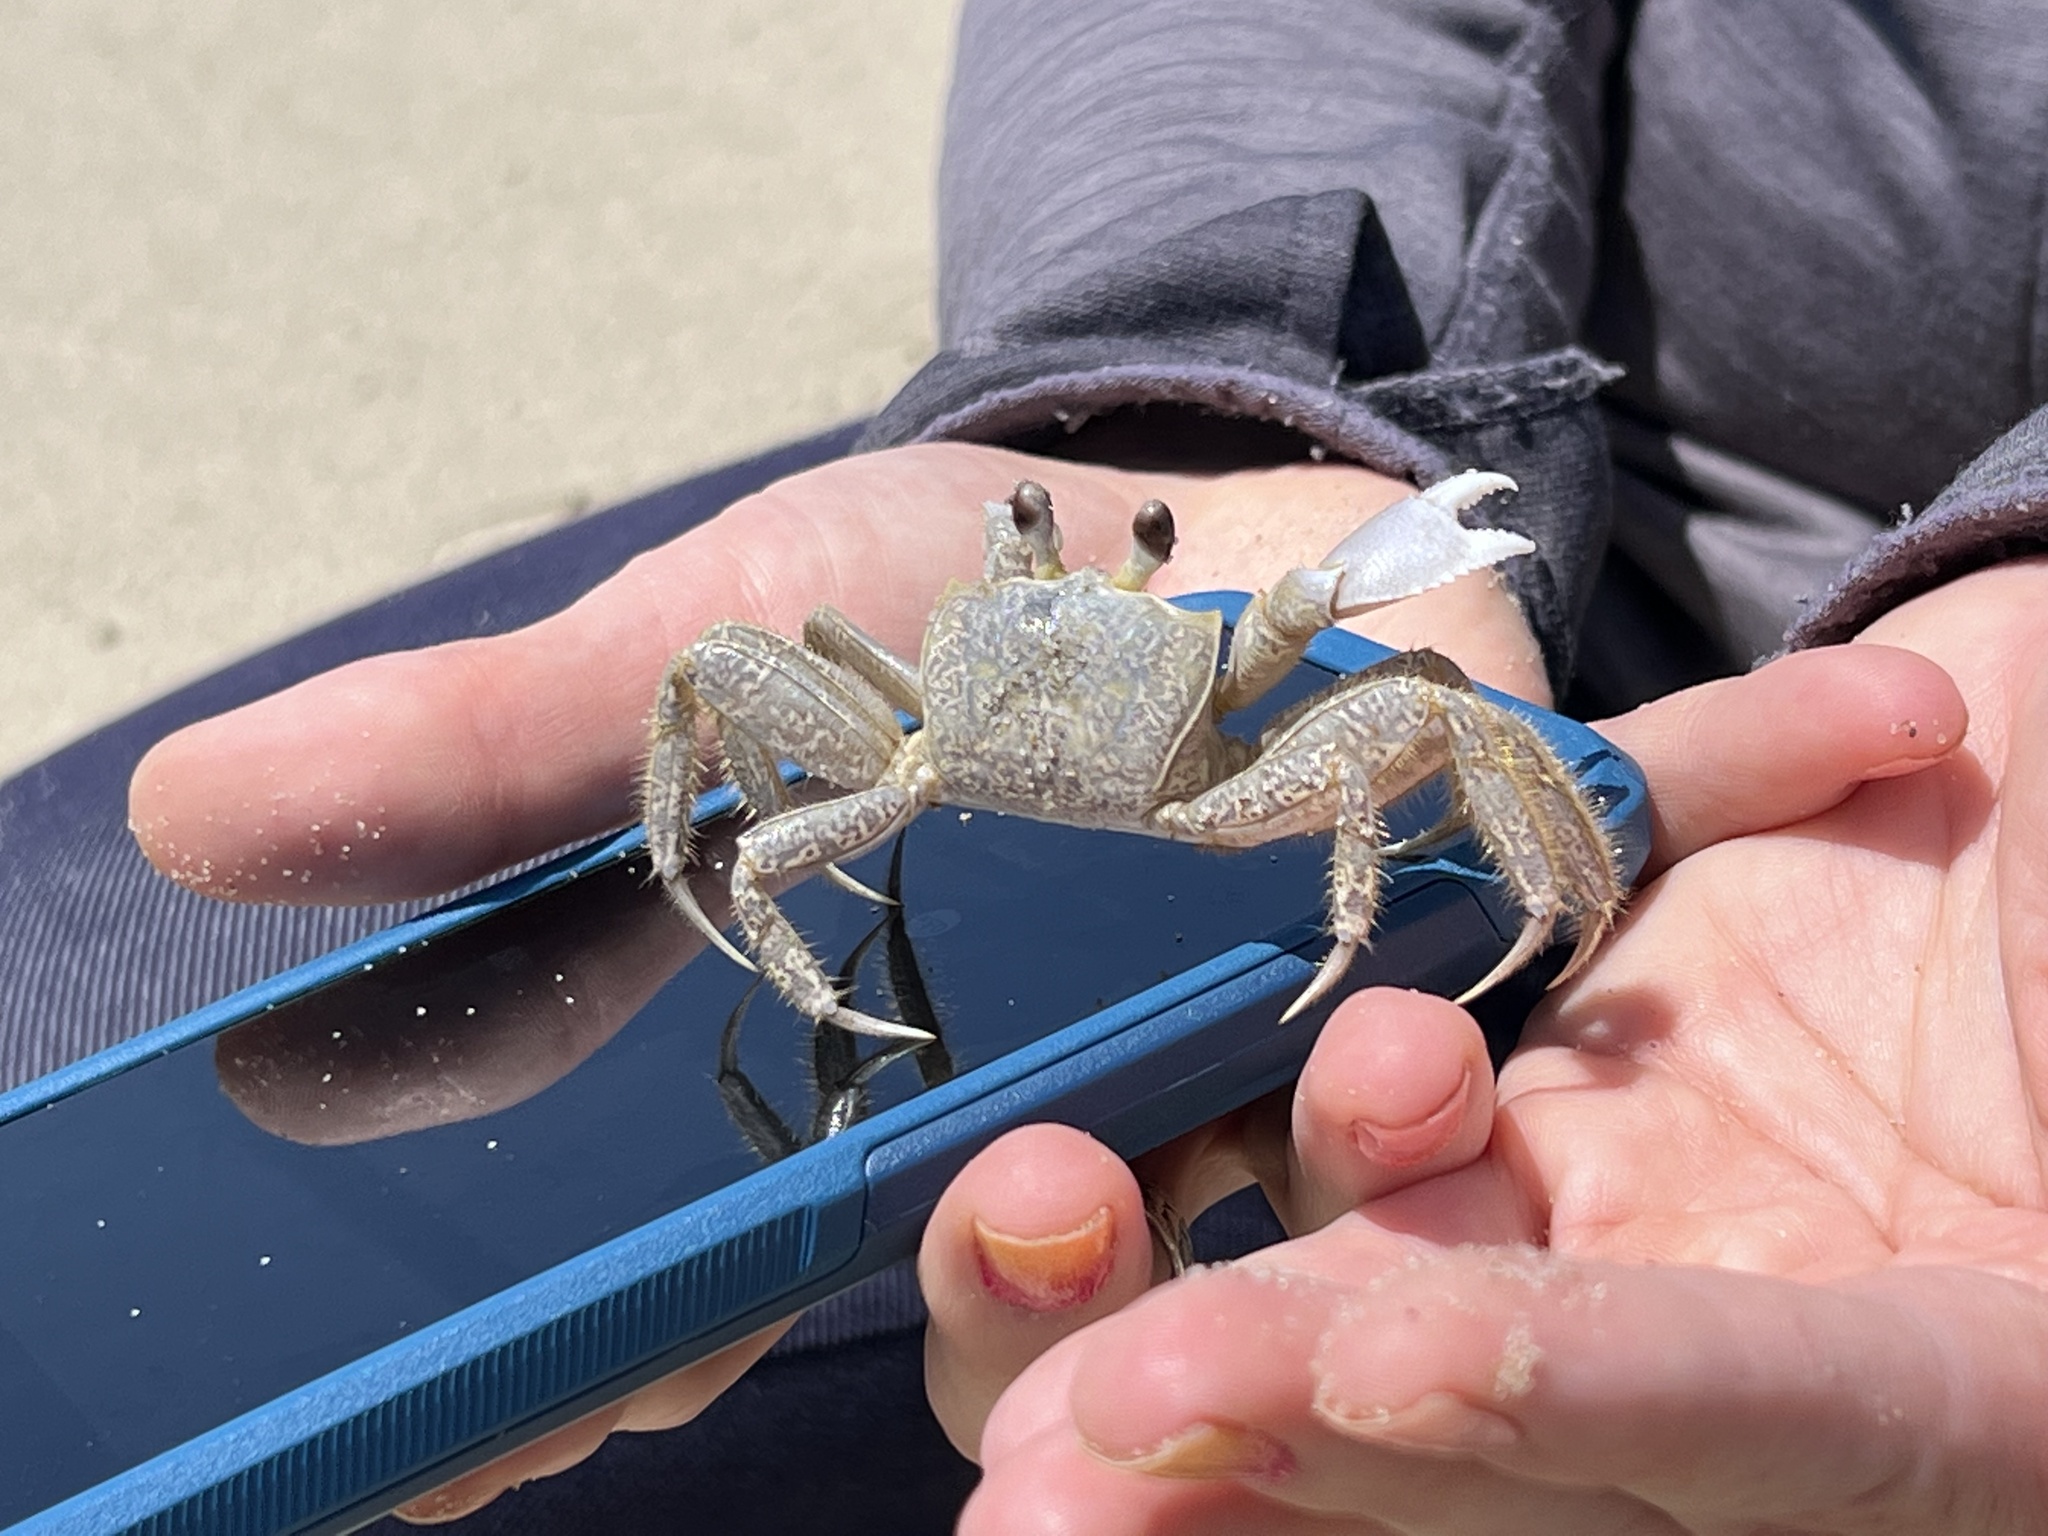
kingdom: Animalia
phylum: Arthropoda
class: Malacostraca
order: Decapoda
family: Ocypodidae
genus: Ocypode
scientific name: Ocypode quadrata
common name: Ghost crab
